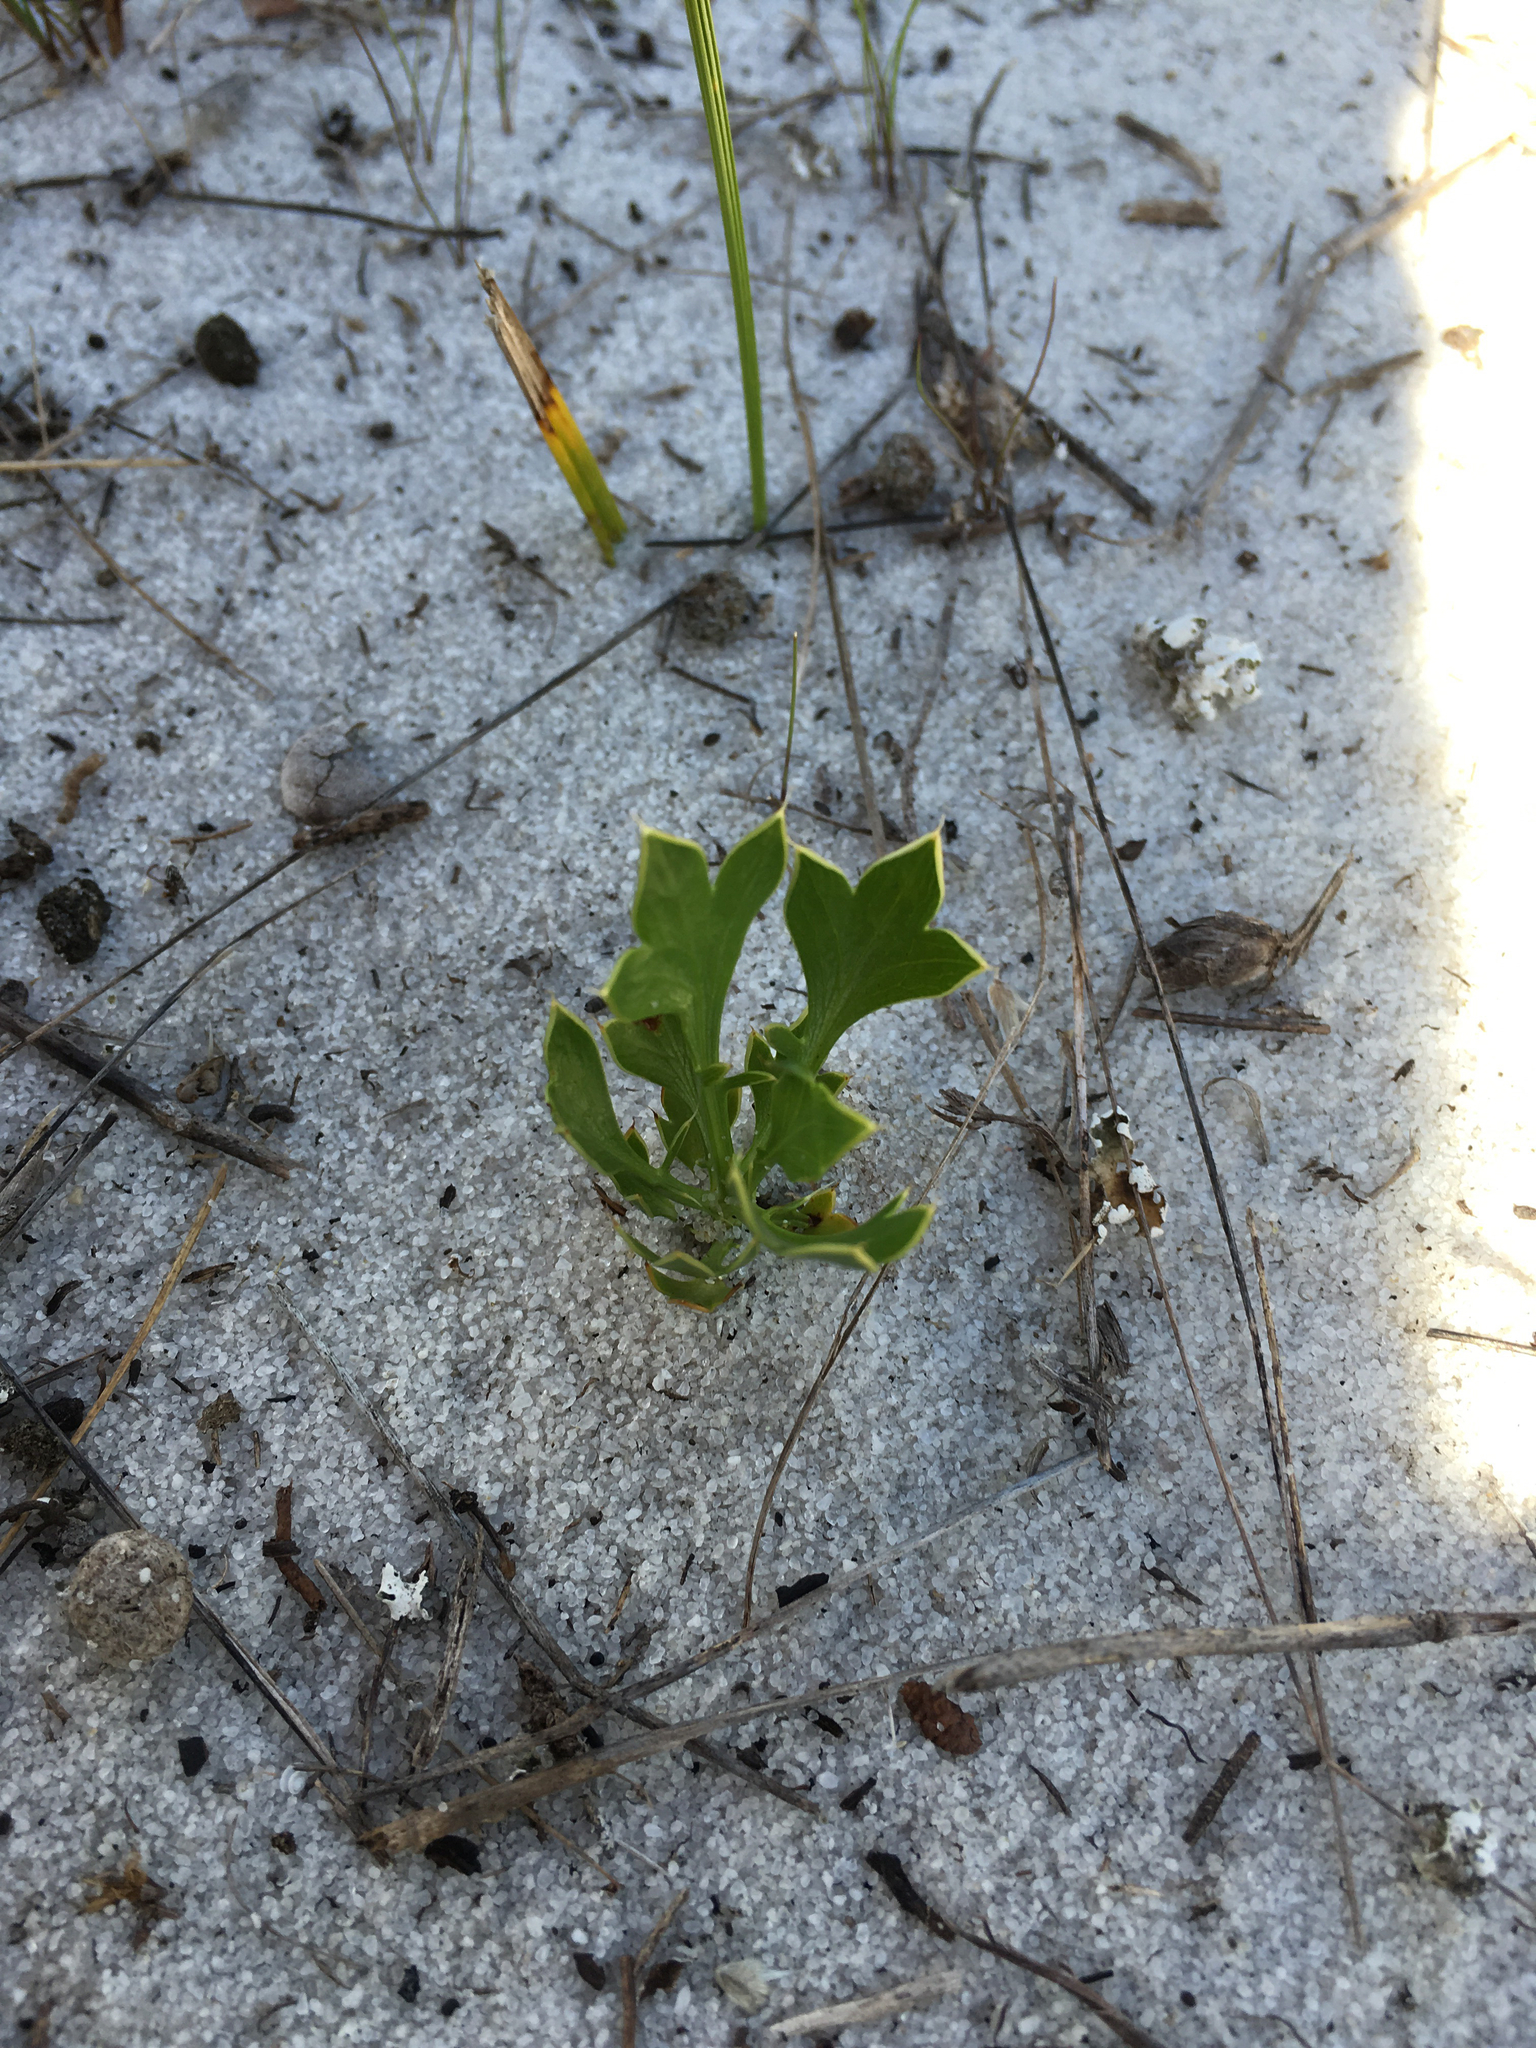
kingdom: Plantae
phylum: Tracheophyta
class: Magnoliopsida
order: Apiales
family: Apiaceae
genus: Eryngium
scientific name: Eryngium cuneifolium
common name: Snakeroot
